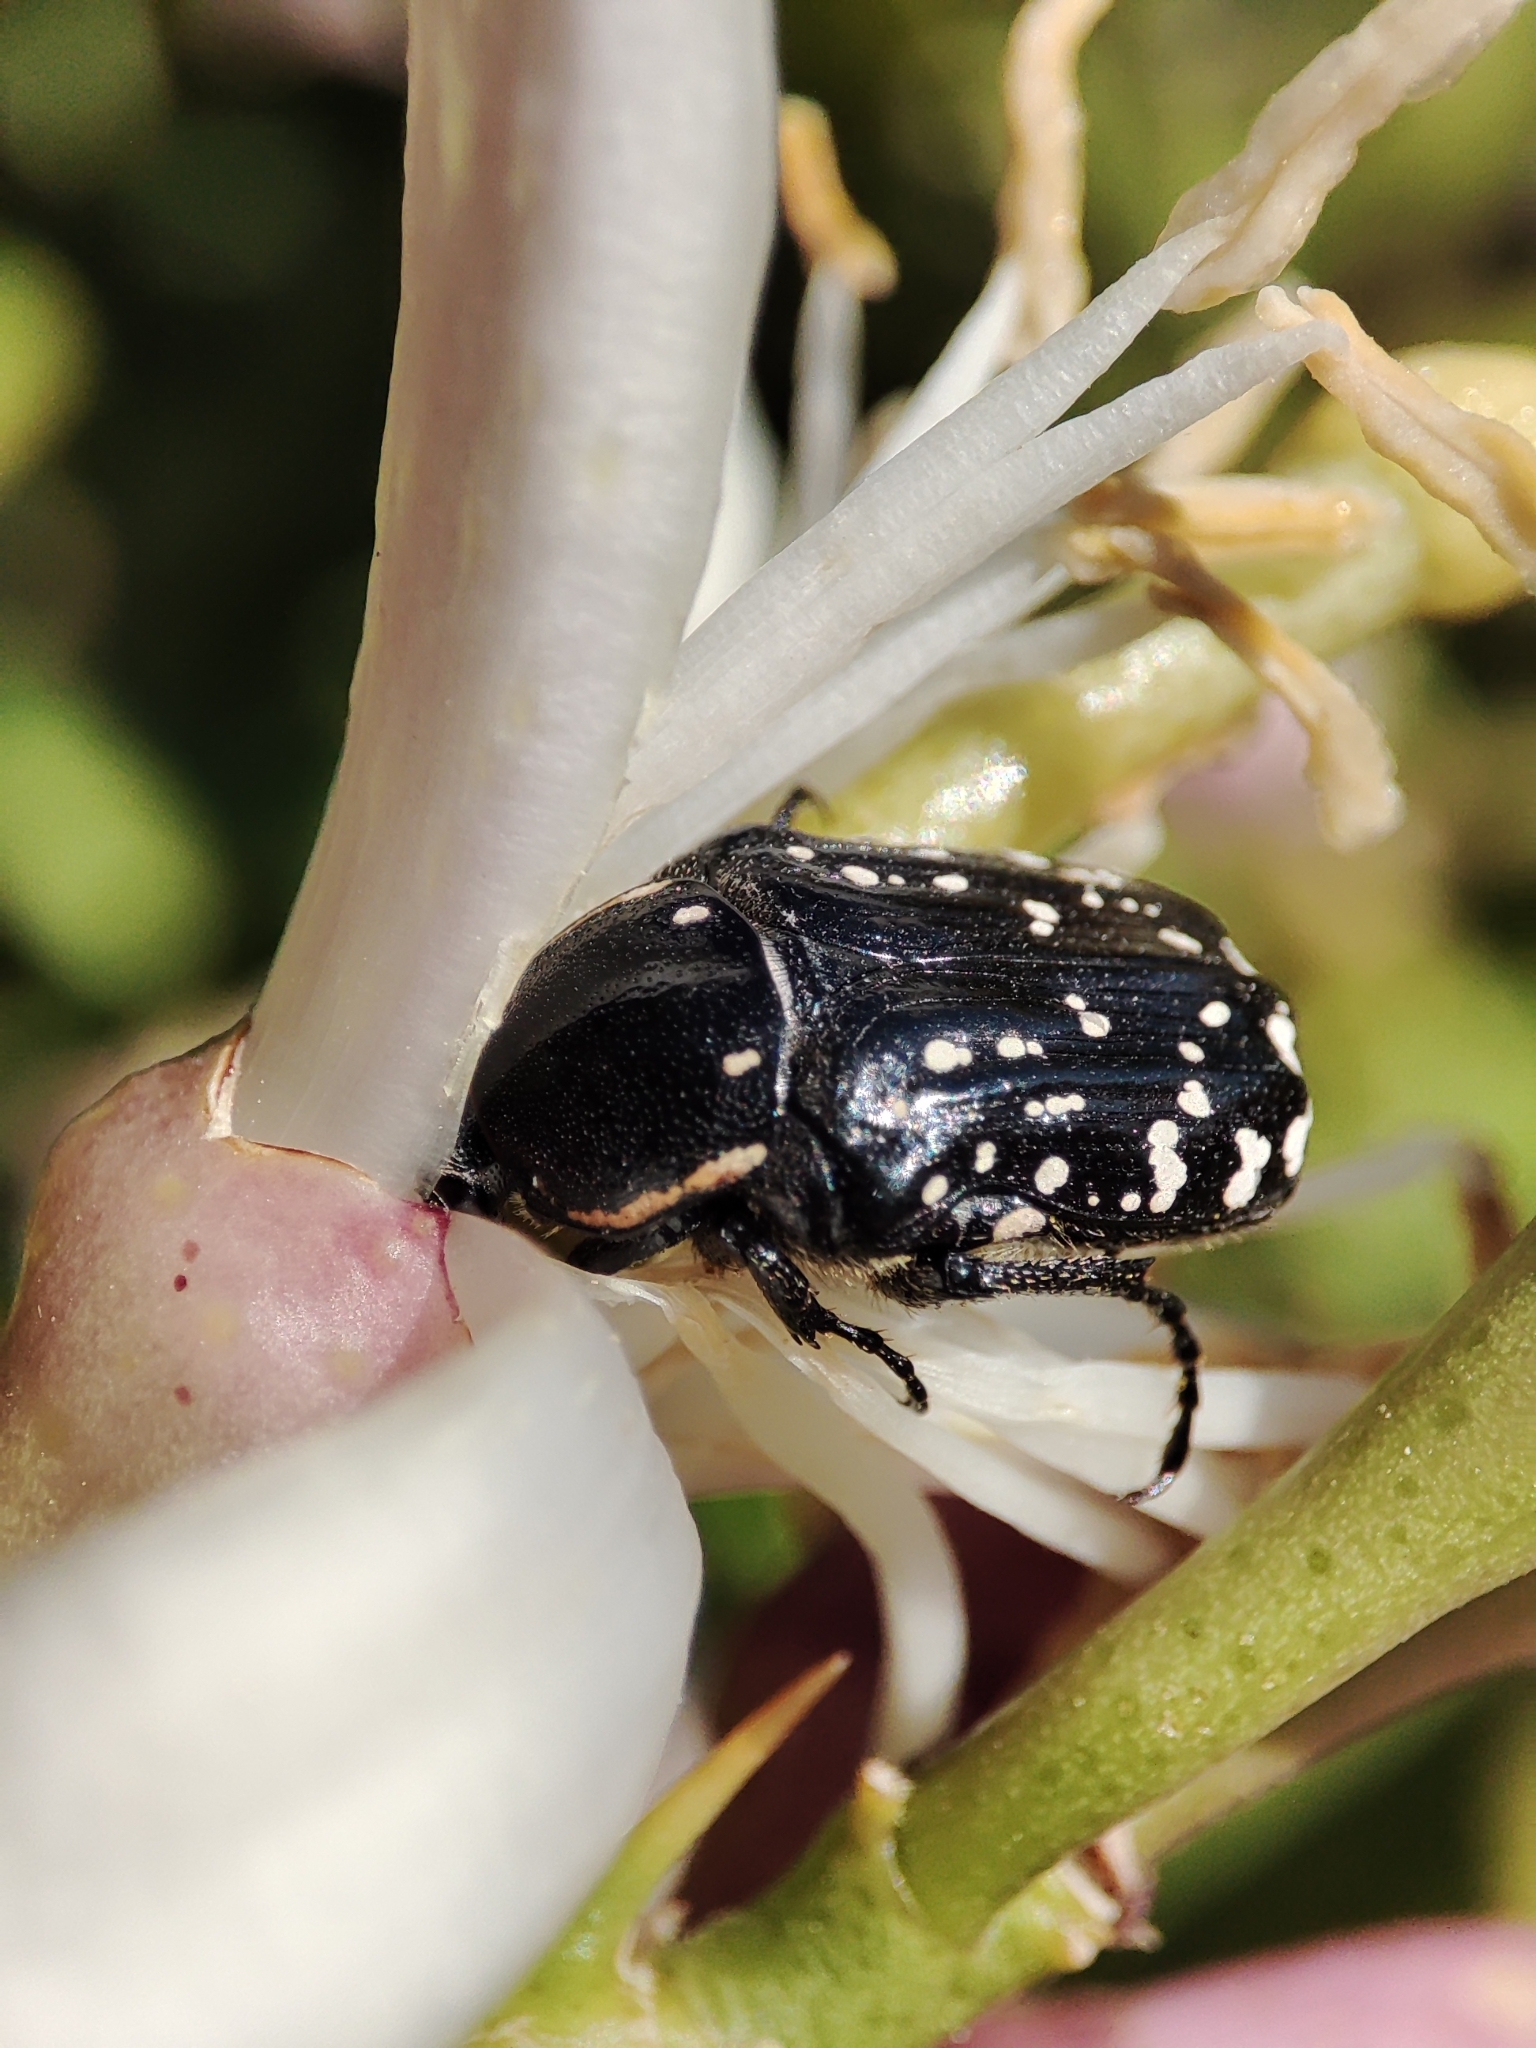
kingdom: Animalia
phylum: Arthropoda
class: Insecta
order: Coleoptera
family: Scarabaeidae
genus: Oxythyrea
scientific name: Oxythyrea cinctella
